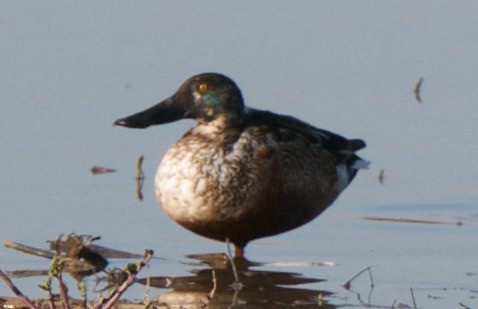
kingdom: Animalia
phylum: Chordata
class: Aves
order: Anseriformes
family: Anatidae
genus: Spatula
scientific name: Spatula clypeata
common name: Northern shoveler
